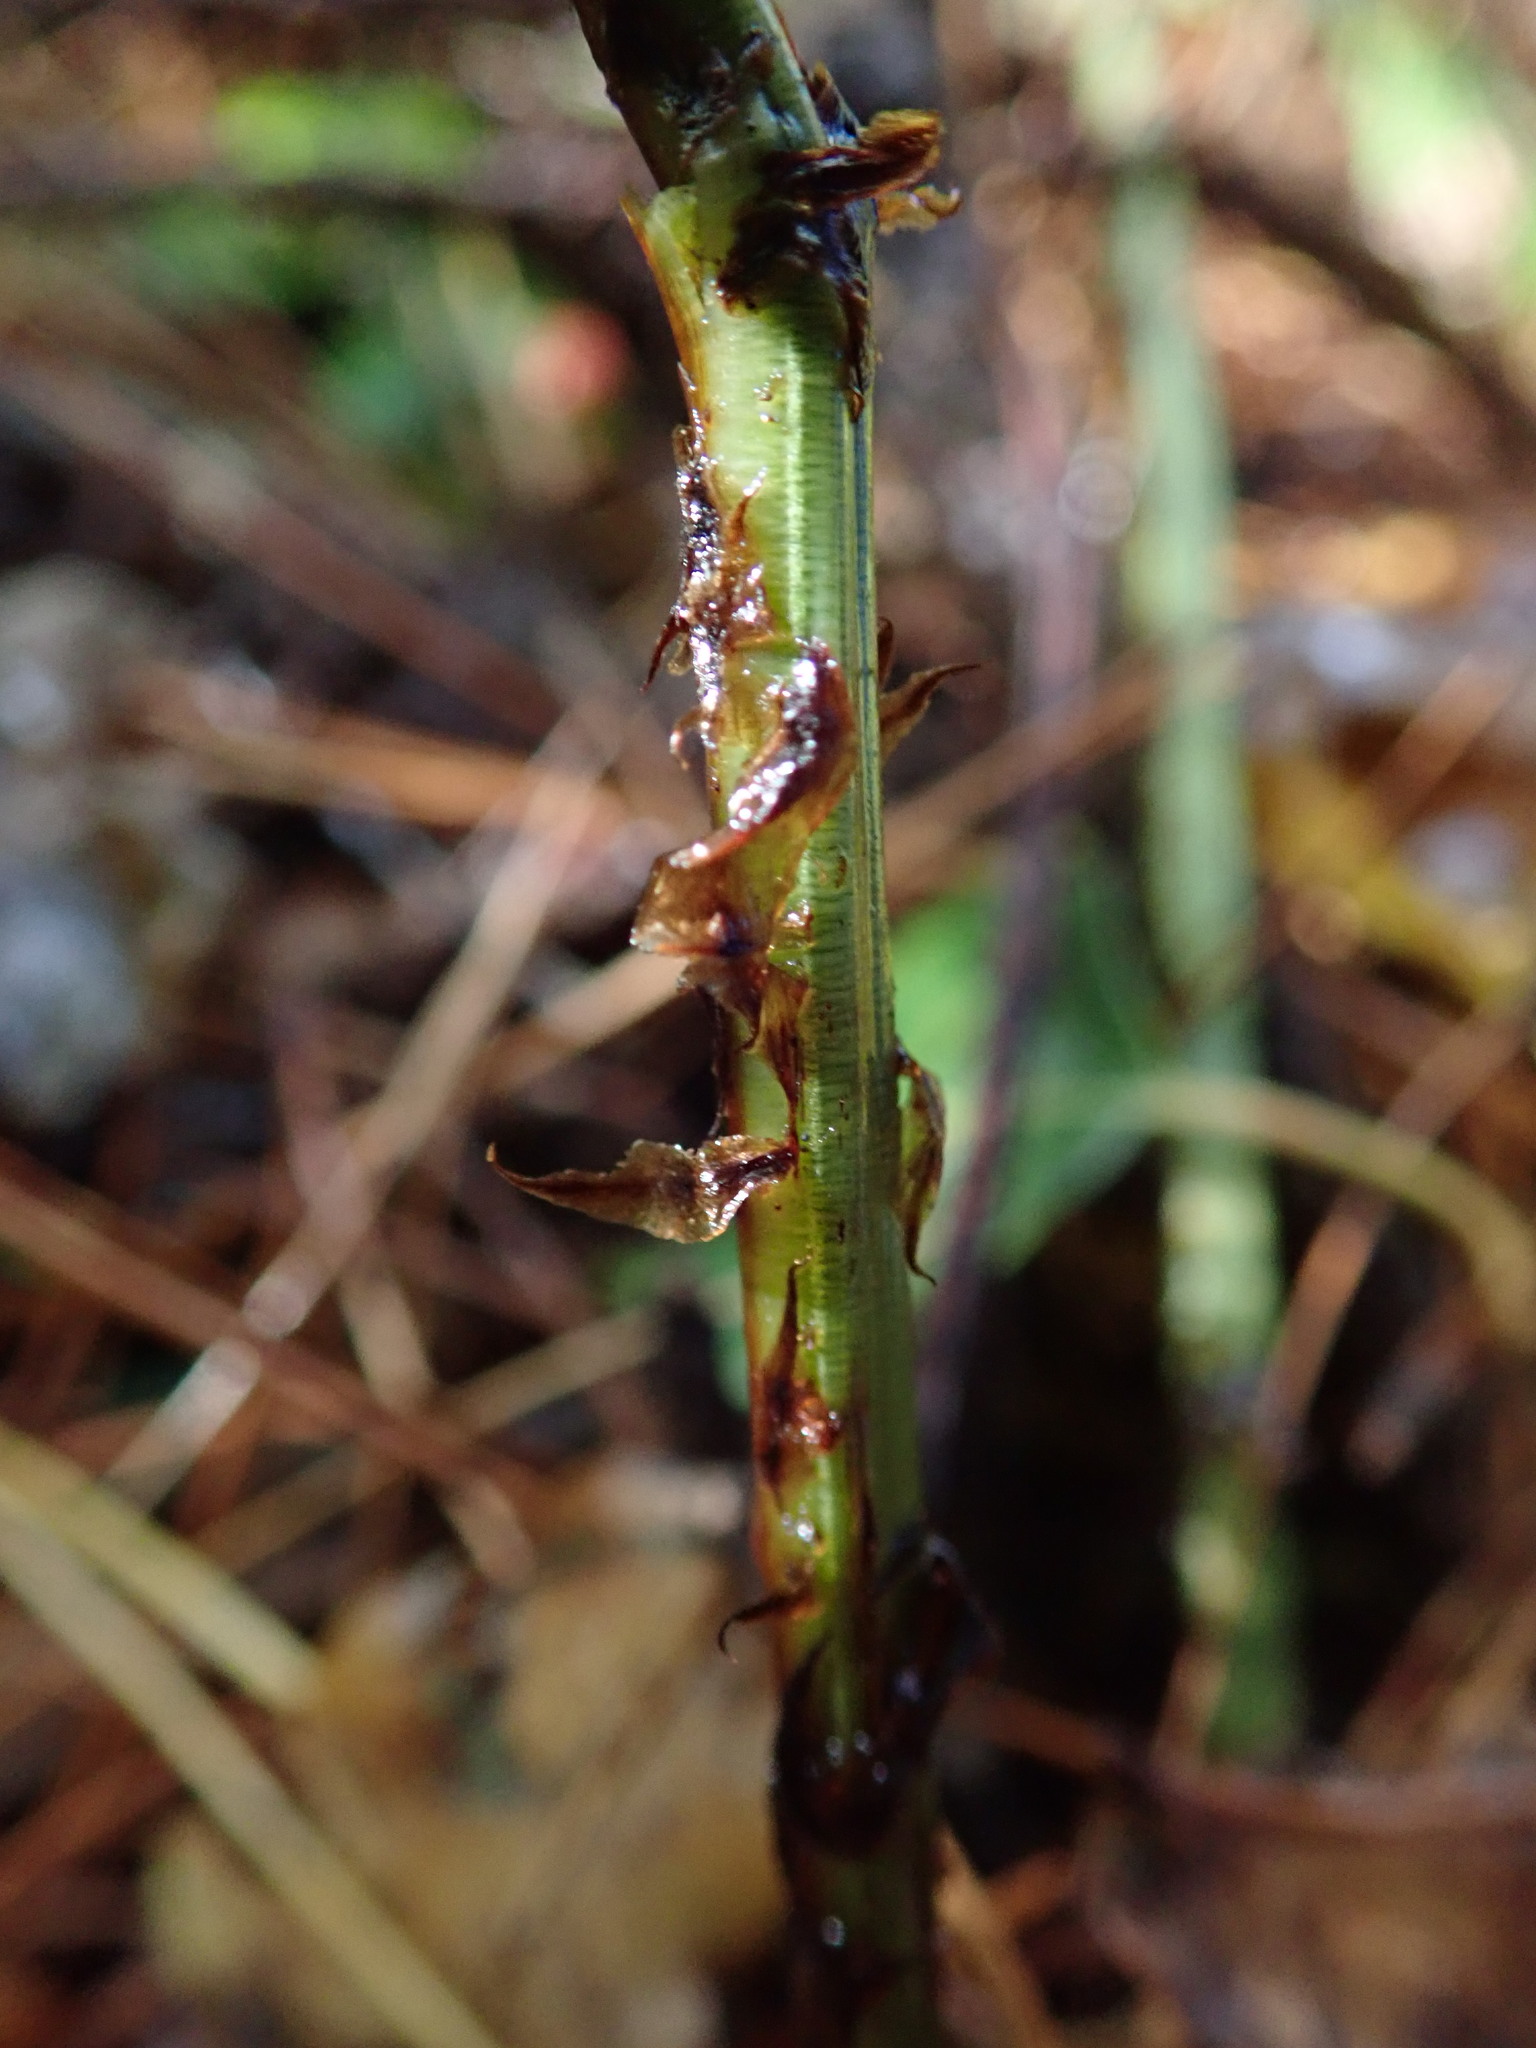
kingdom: Plantae
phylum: Tracheophyta
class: Polypodiopsida
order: Polypodiales
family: Dryopteridaceae
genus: Dryopteris
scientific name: Dryopteris dilatata
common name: Broad buckler-fern
